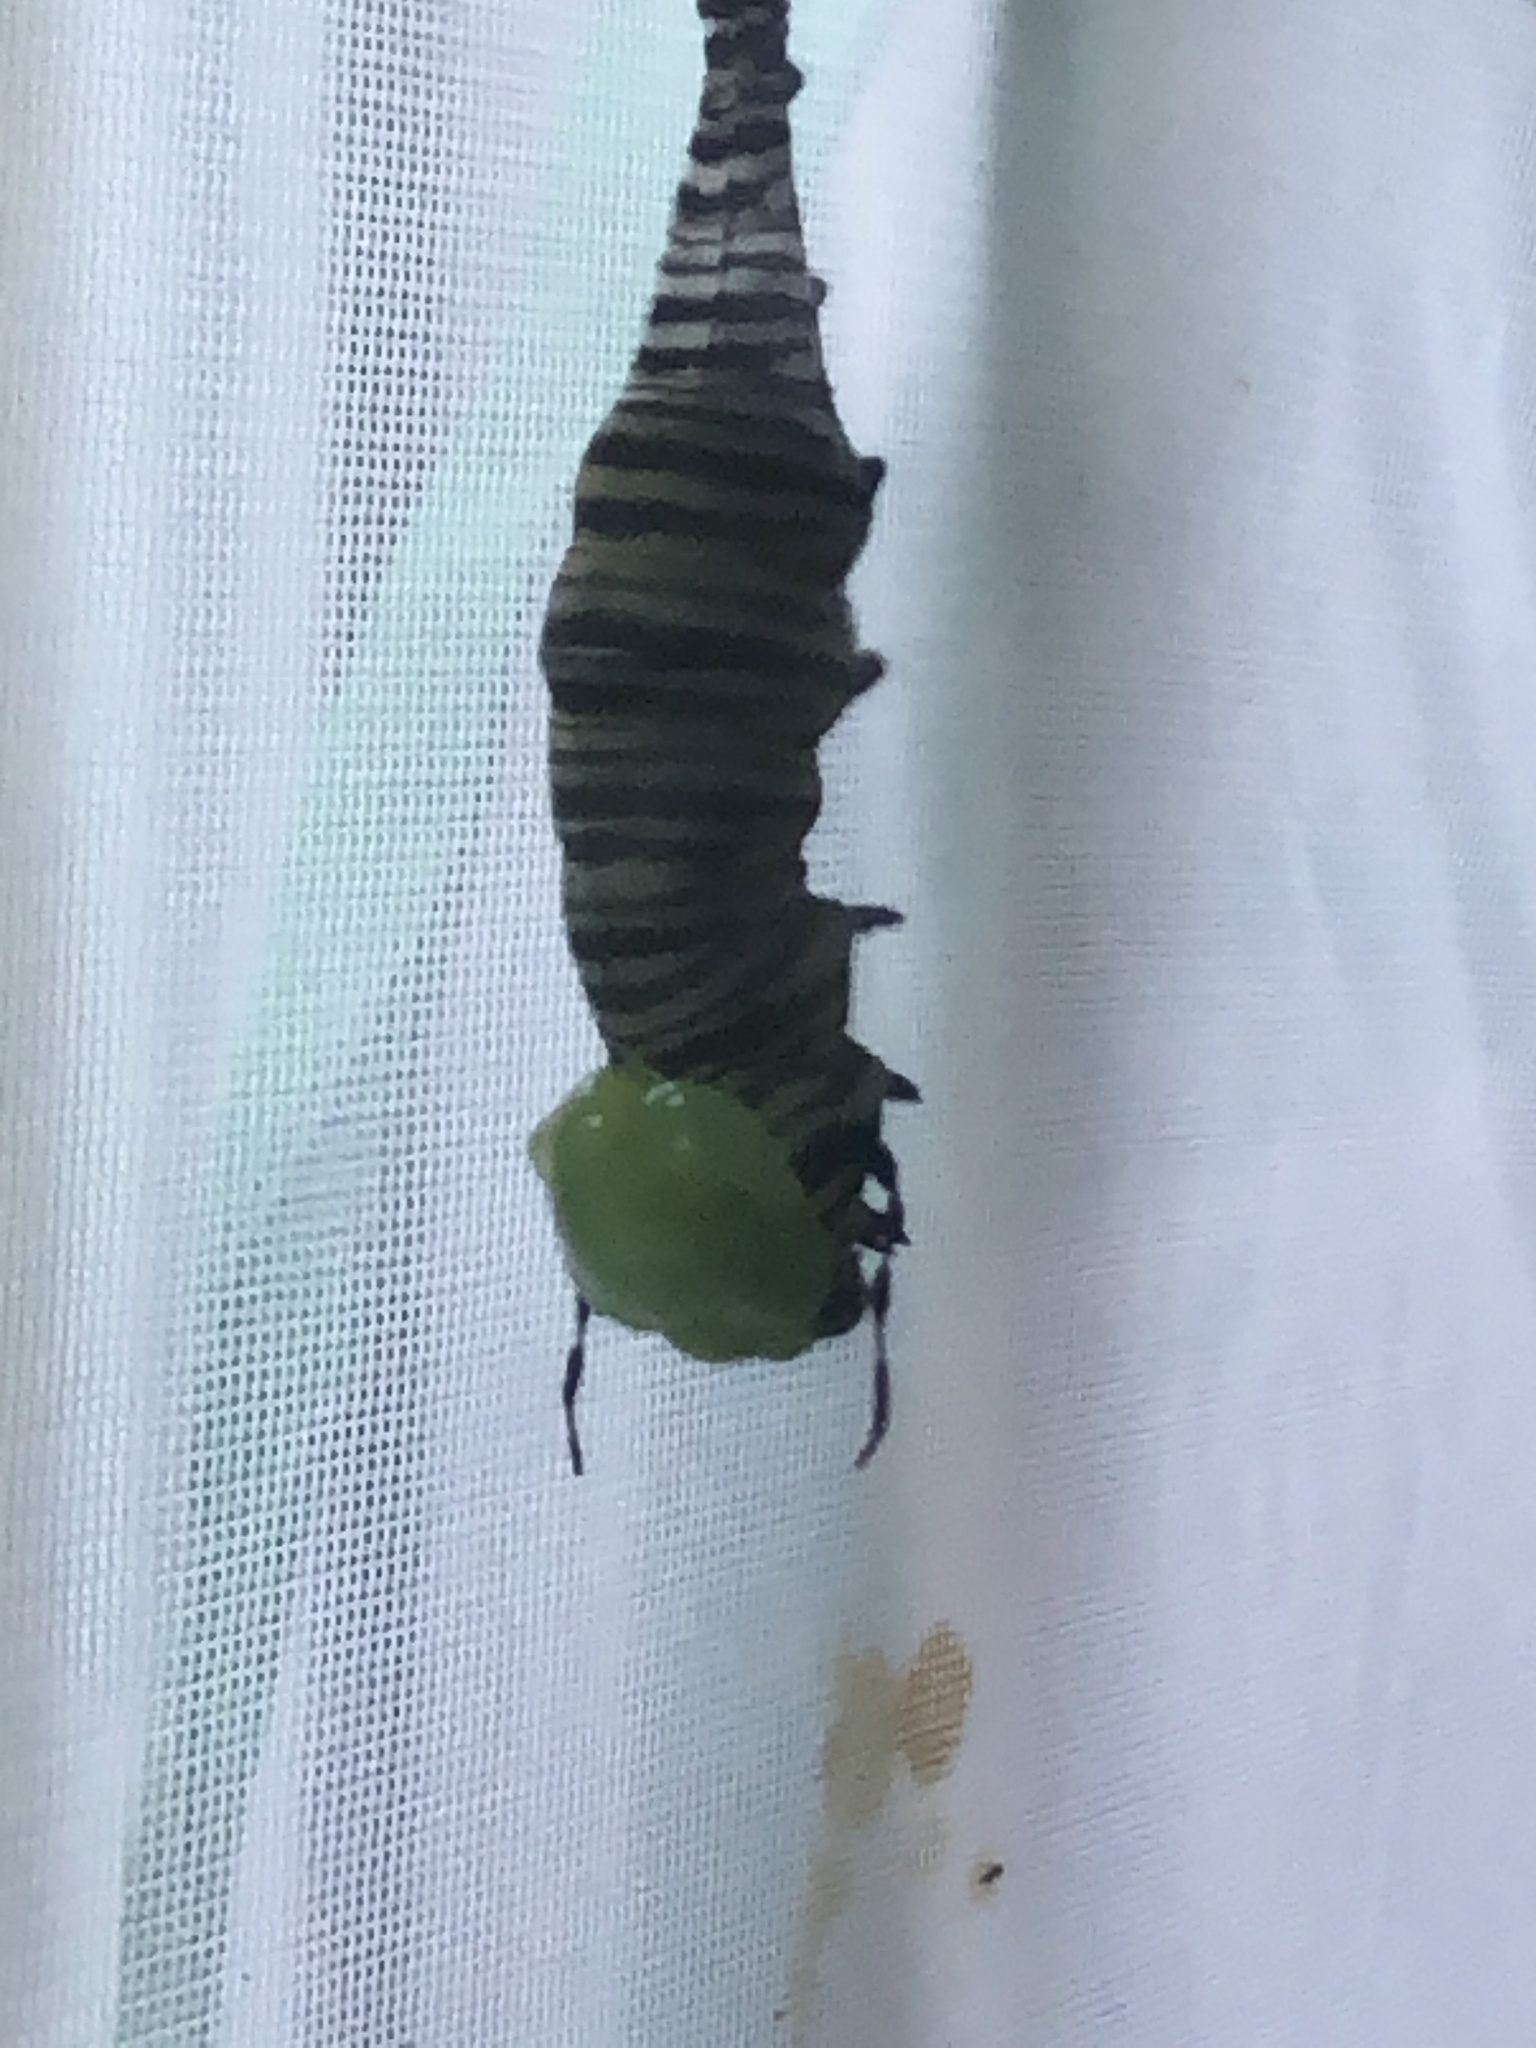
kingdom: Animalia
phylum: Arthropoda
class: Insecta
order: Lepidoptera
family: Nymphalidae
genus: Danaus
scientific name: Danaus plexippus
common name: Monarch
